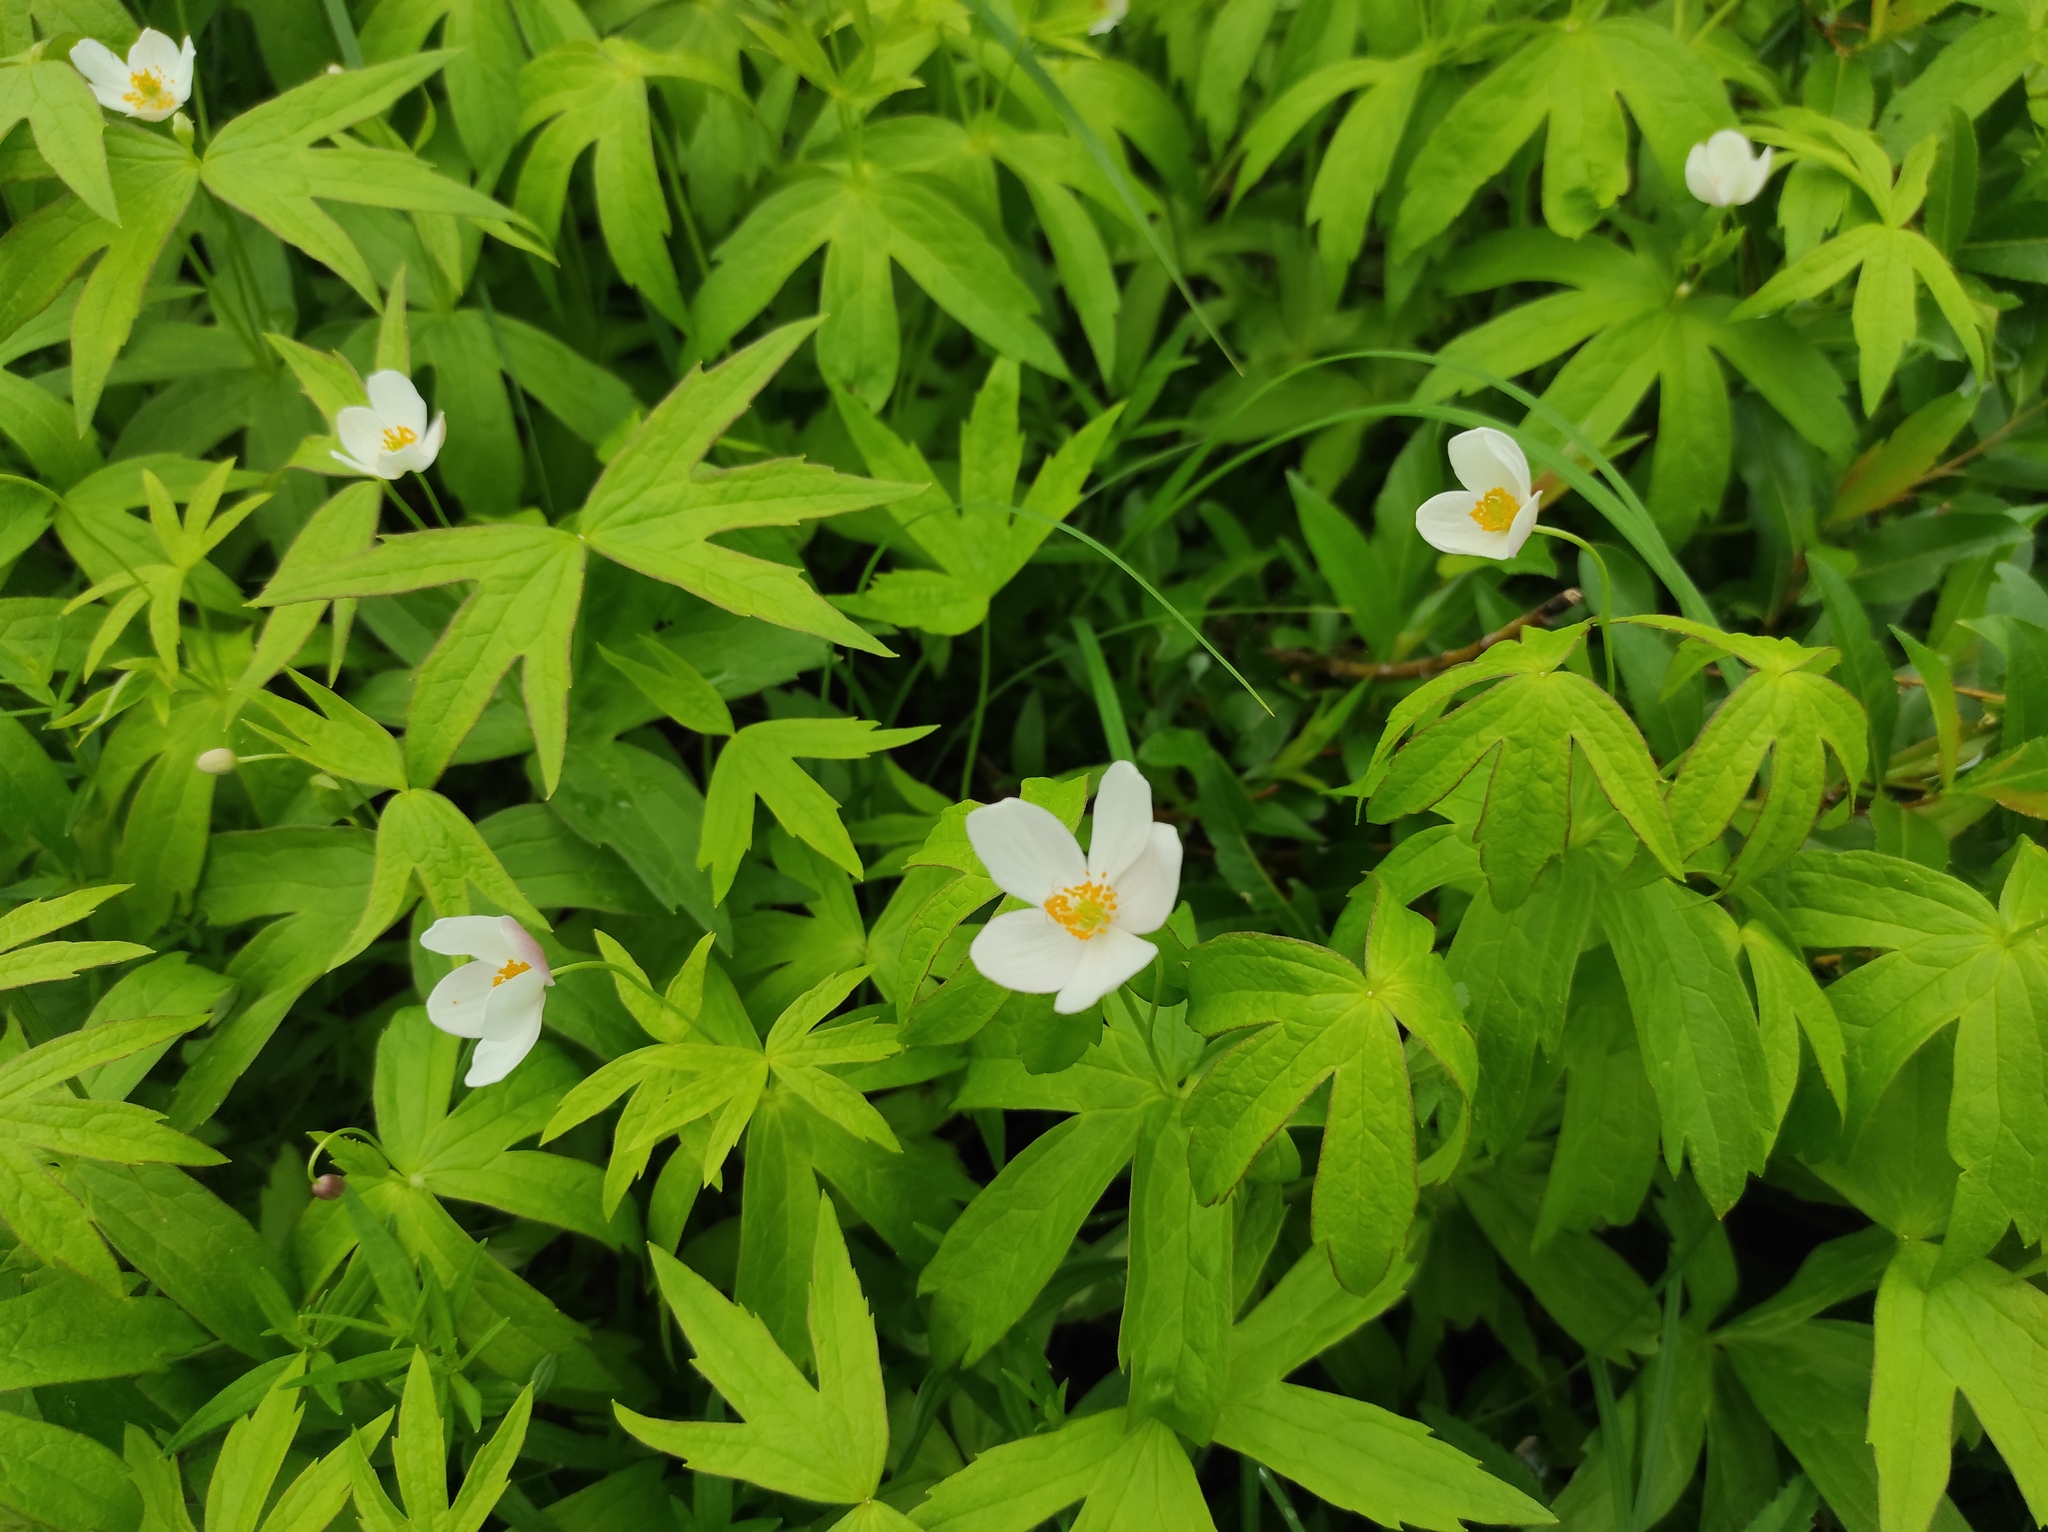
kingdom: Plantae
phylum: Tracheophyta
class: Magnoliopsida
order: Ranunculales
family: Ranunculaceae
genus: Anemonastrum
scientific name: Anemonastrum dichotomum
